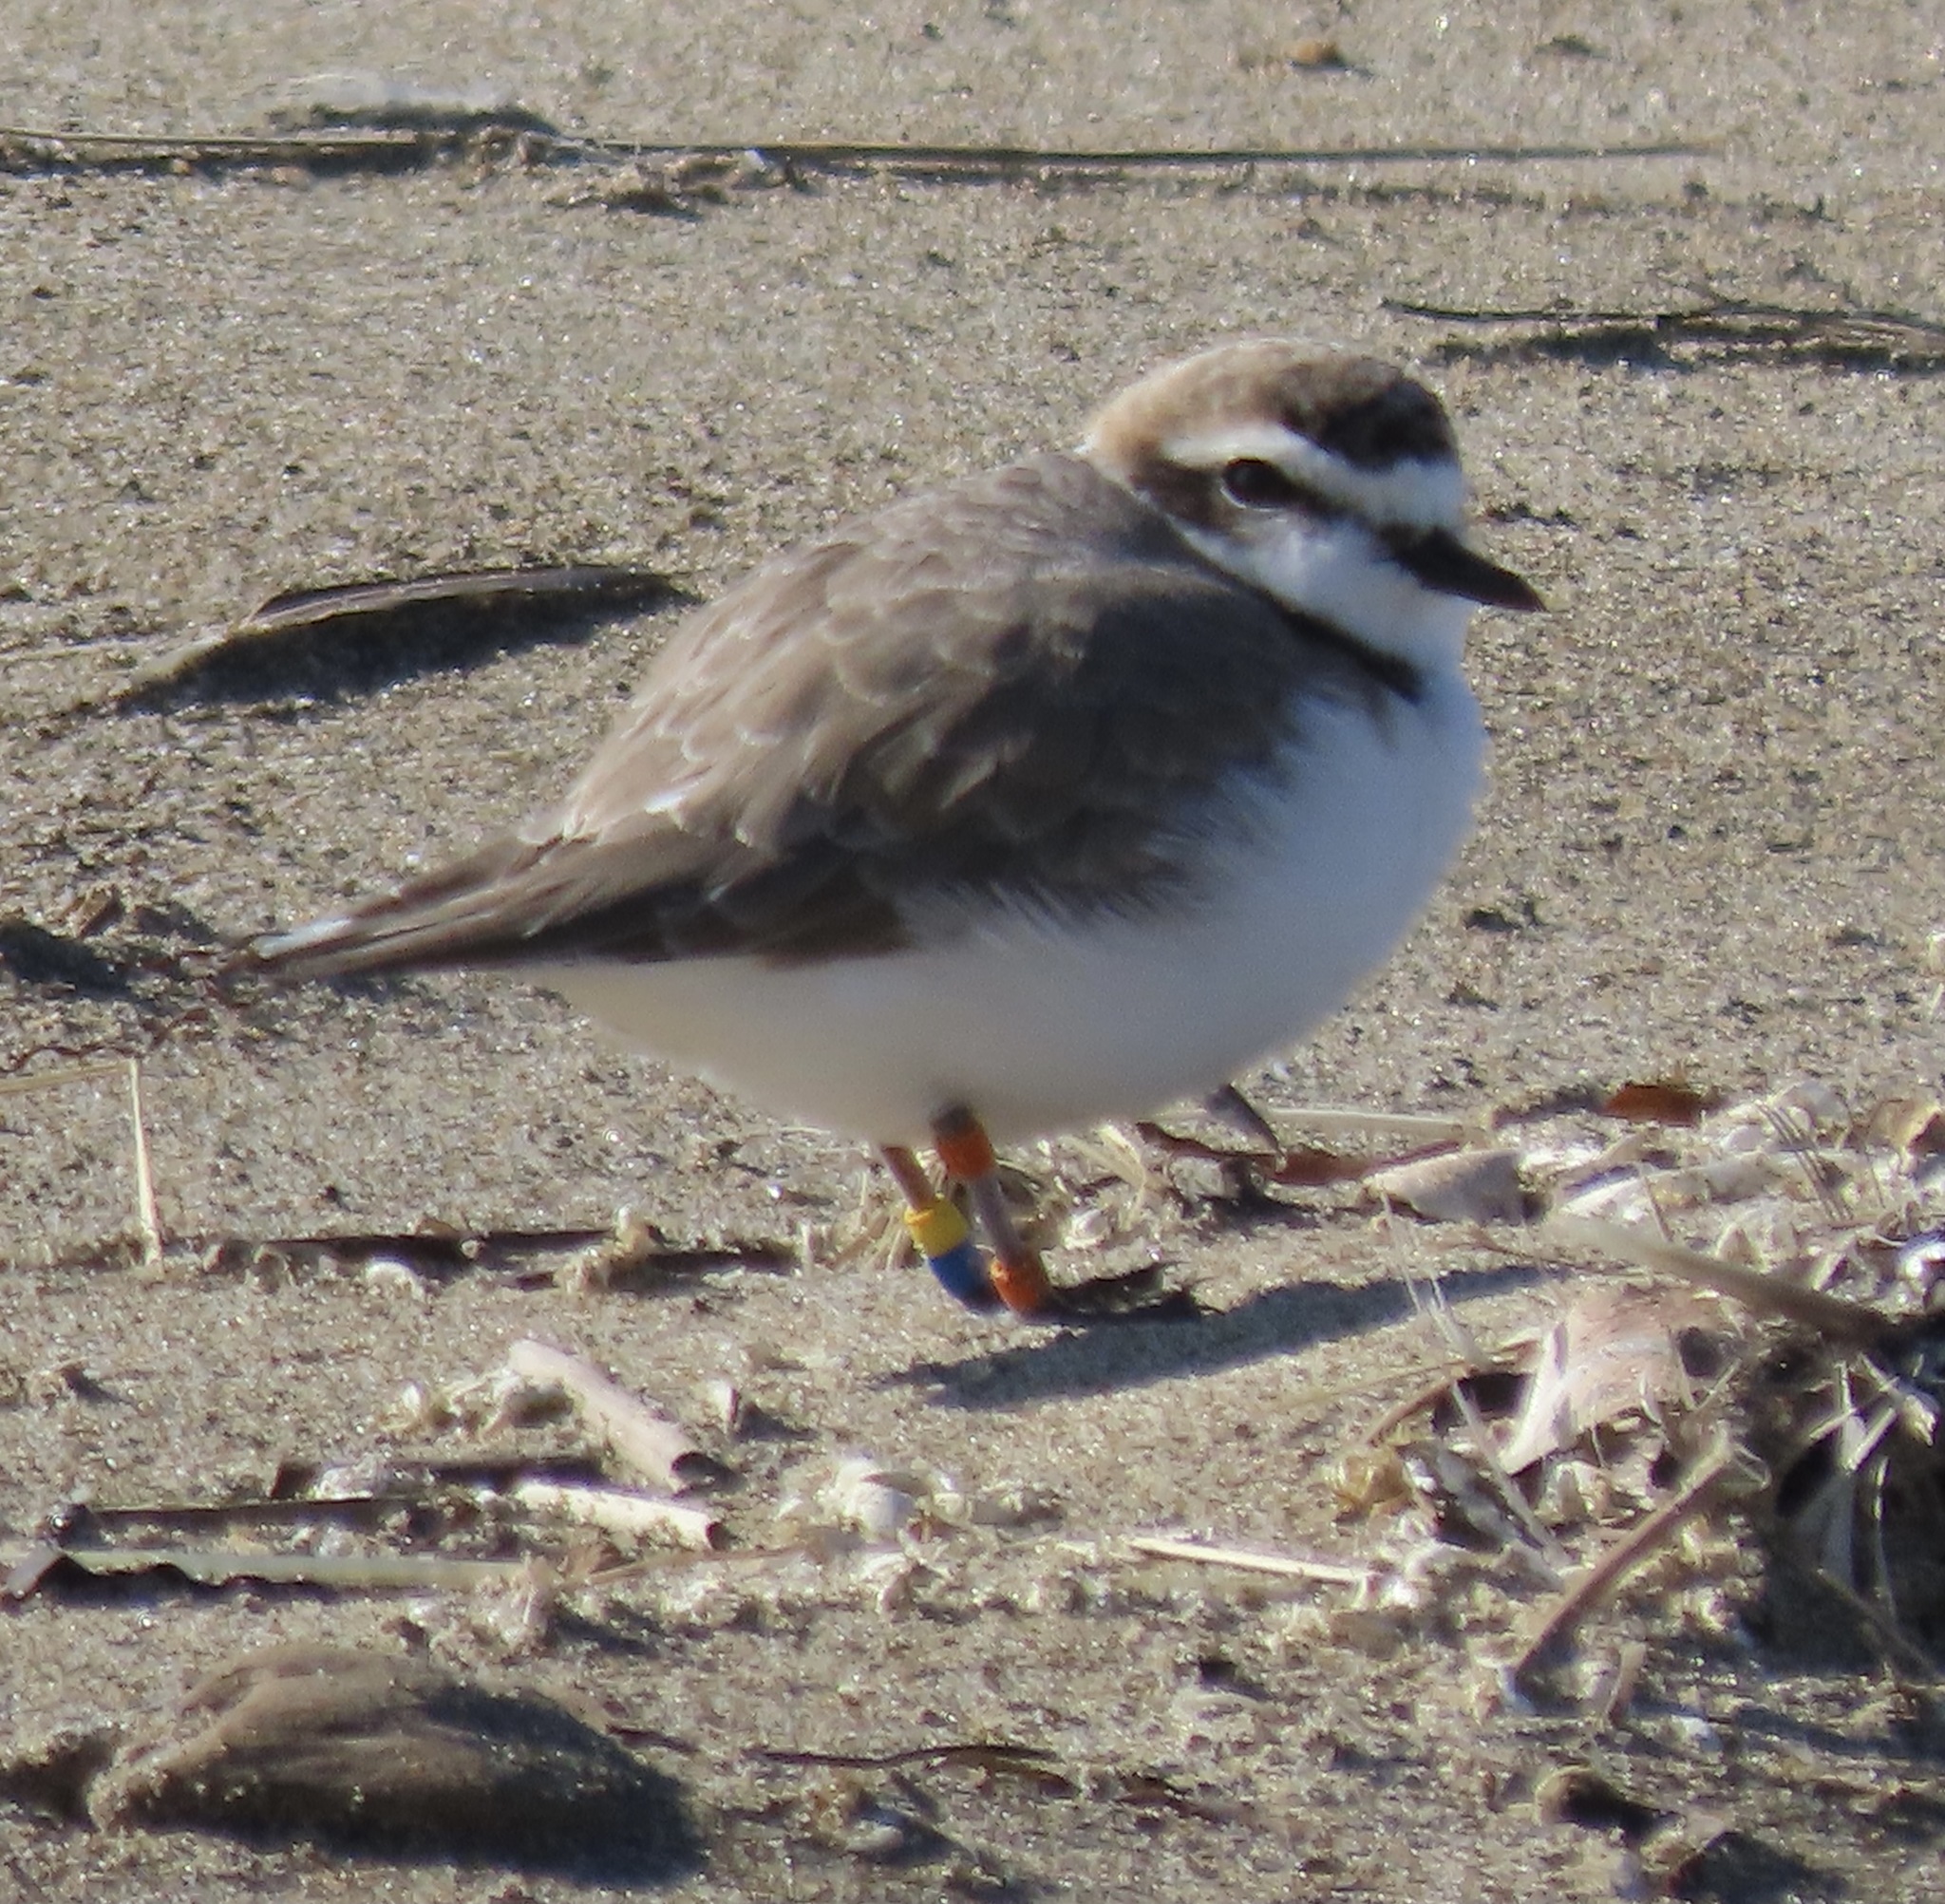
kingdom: Animalia
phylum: Chordata
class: Aves
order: Charadriiformes
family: Charadriidae
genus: Anarhynchus
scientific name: Anarhynchus
